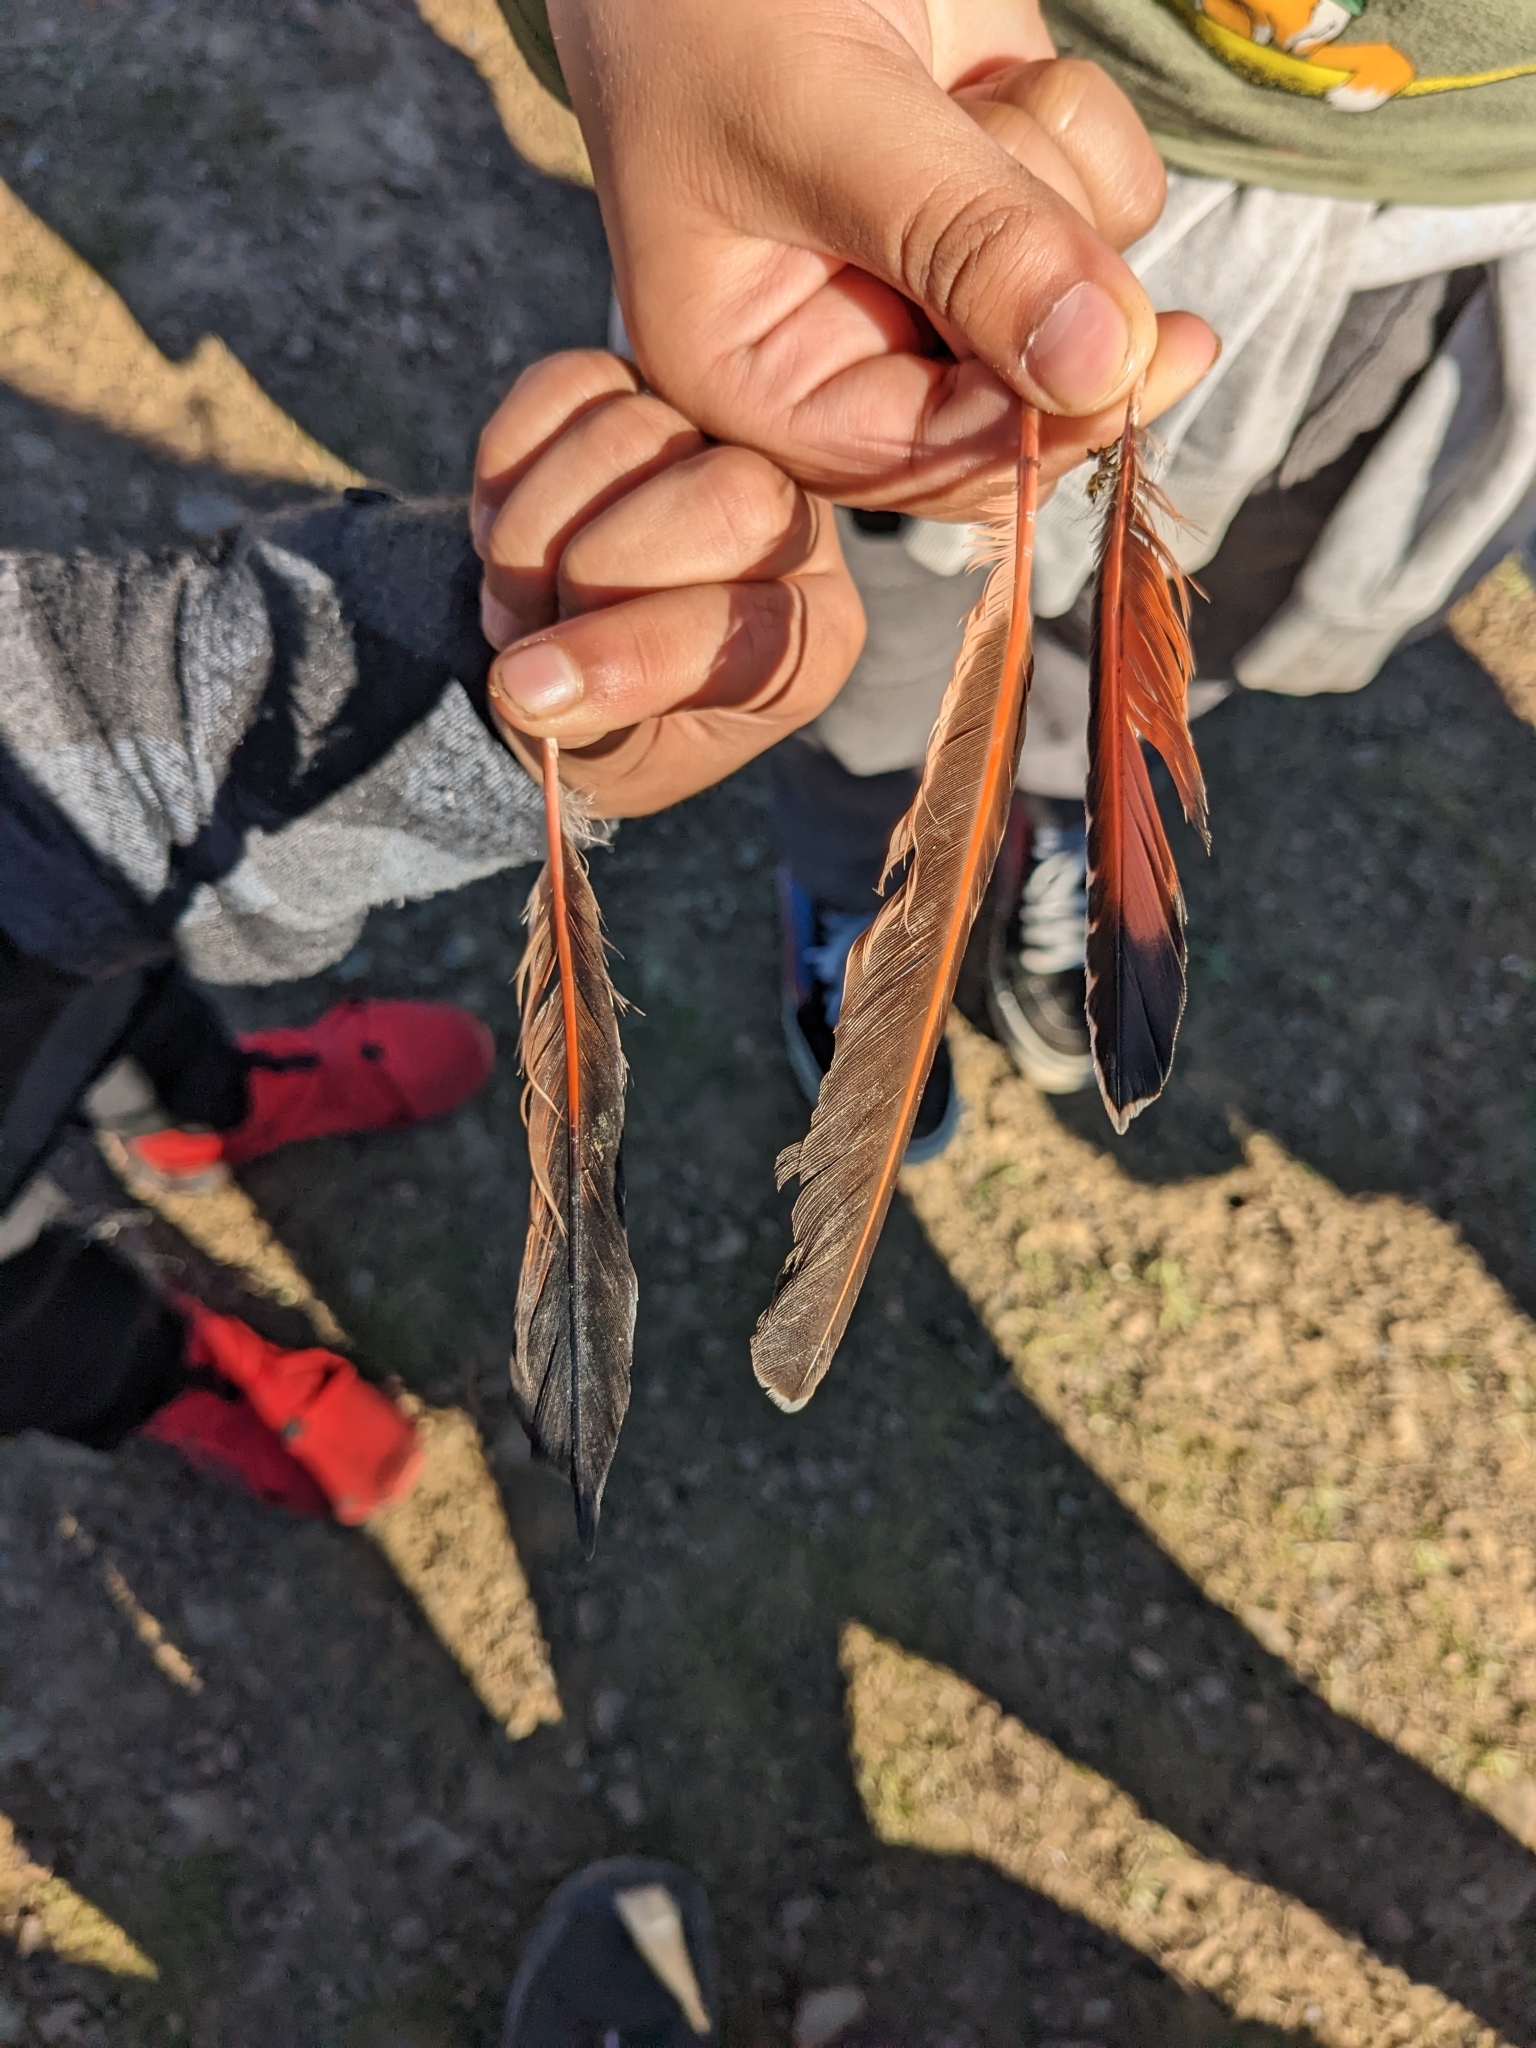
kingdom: Animalia
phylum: Chordata
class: Aves
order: Piciformes
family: Picidae
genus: Colaptes
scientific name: Colaptes auratus
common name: Northern flicker
